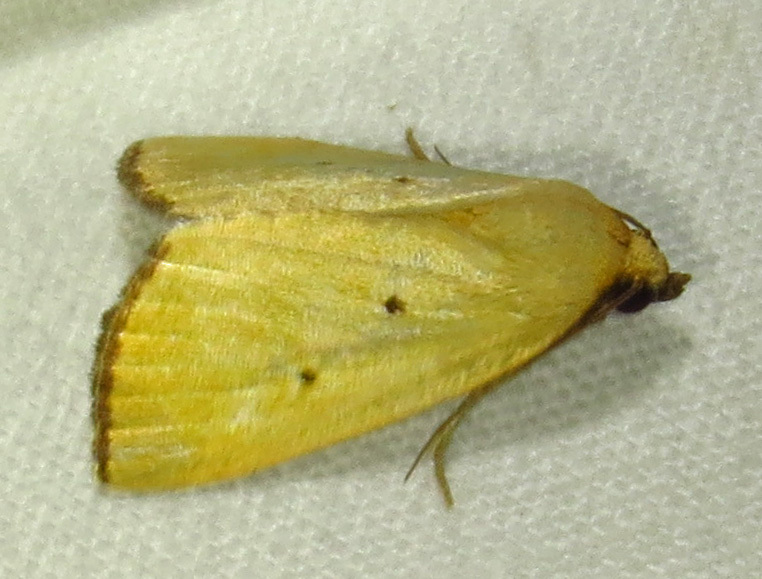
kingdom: Animalia
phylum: Arthropoda
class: Insecta
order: Lepidoptera
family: Noctuidae
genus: Marimatha
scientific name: Marimatha nigrofimbria
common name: Black-bordered lemon moth
